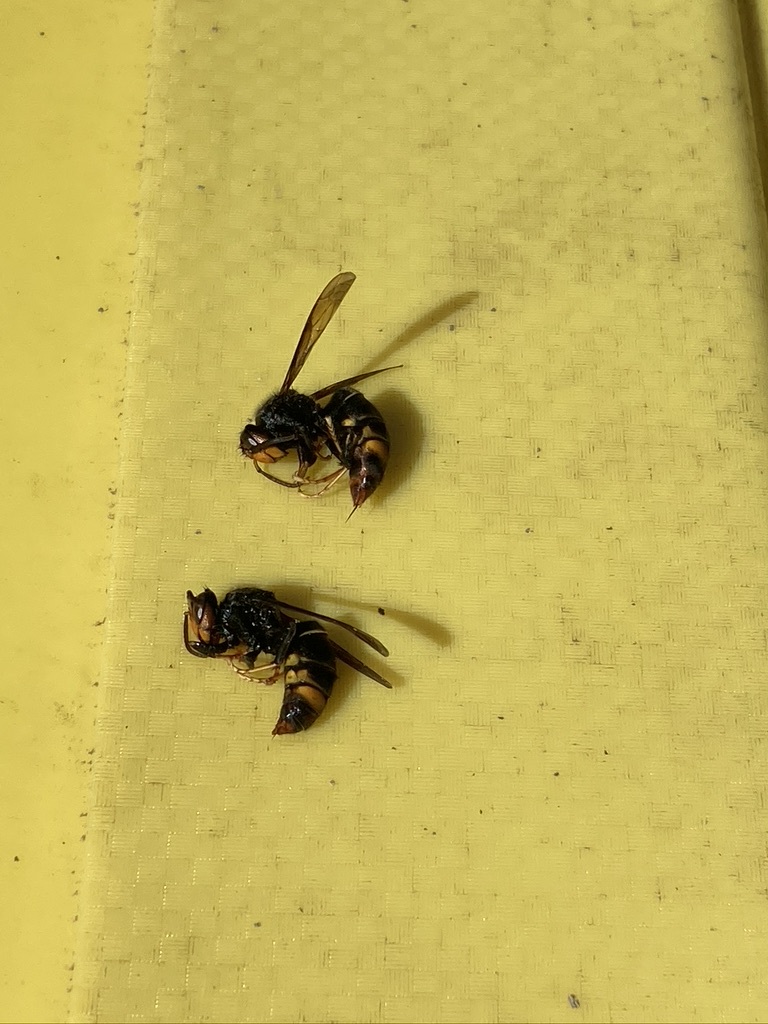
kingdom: Animalia
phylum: Arthropoda
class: Insecta
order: Hymenoptera
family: Vespidae
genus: Vespa
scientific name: Vespa velutina
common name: Asian hornet
